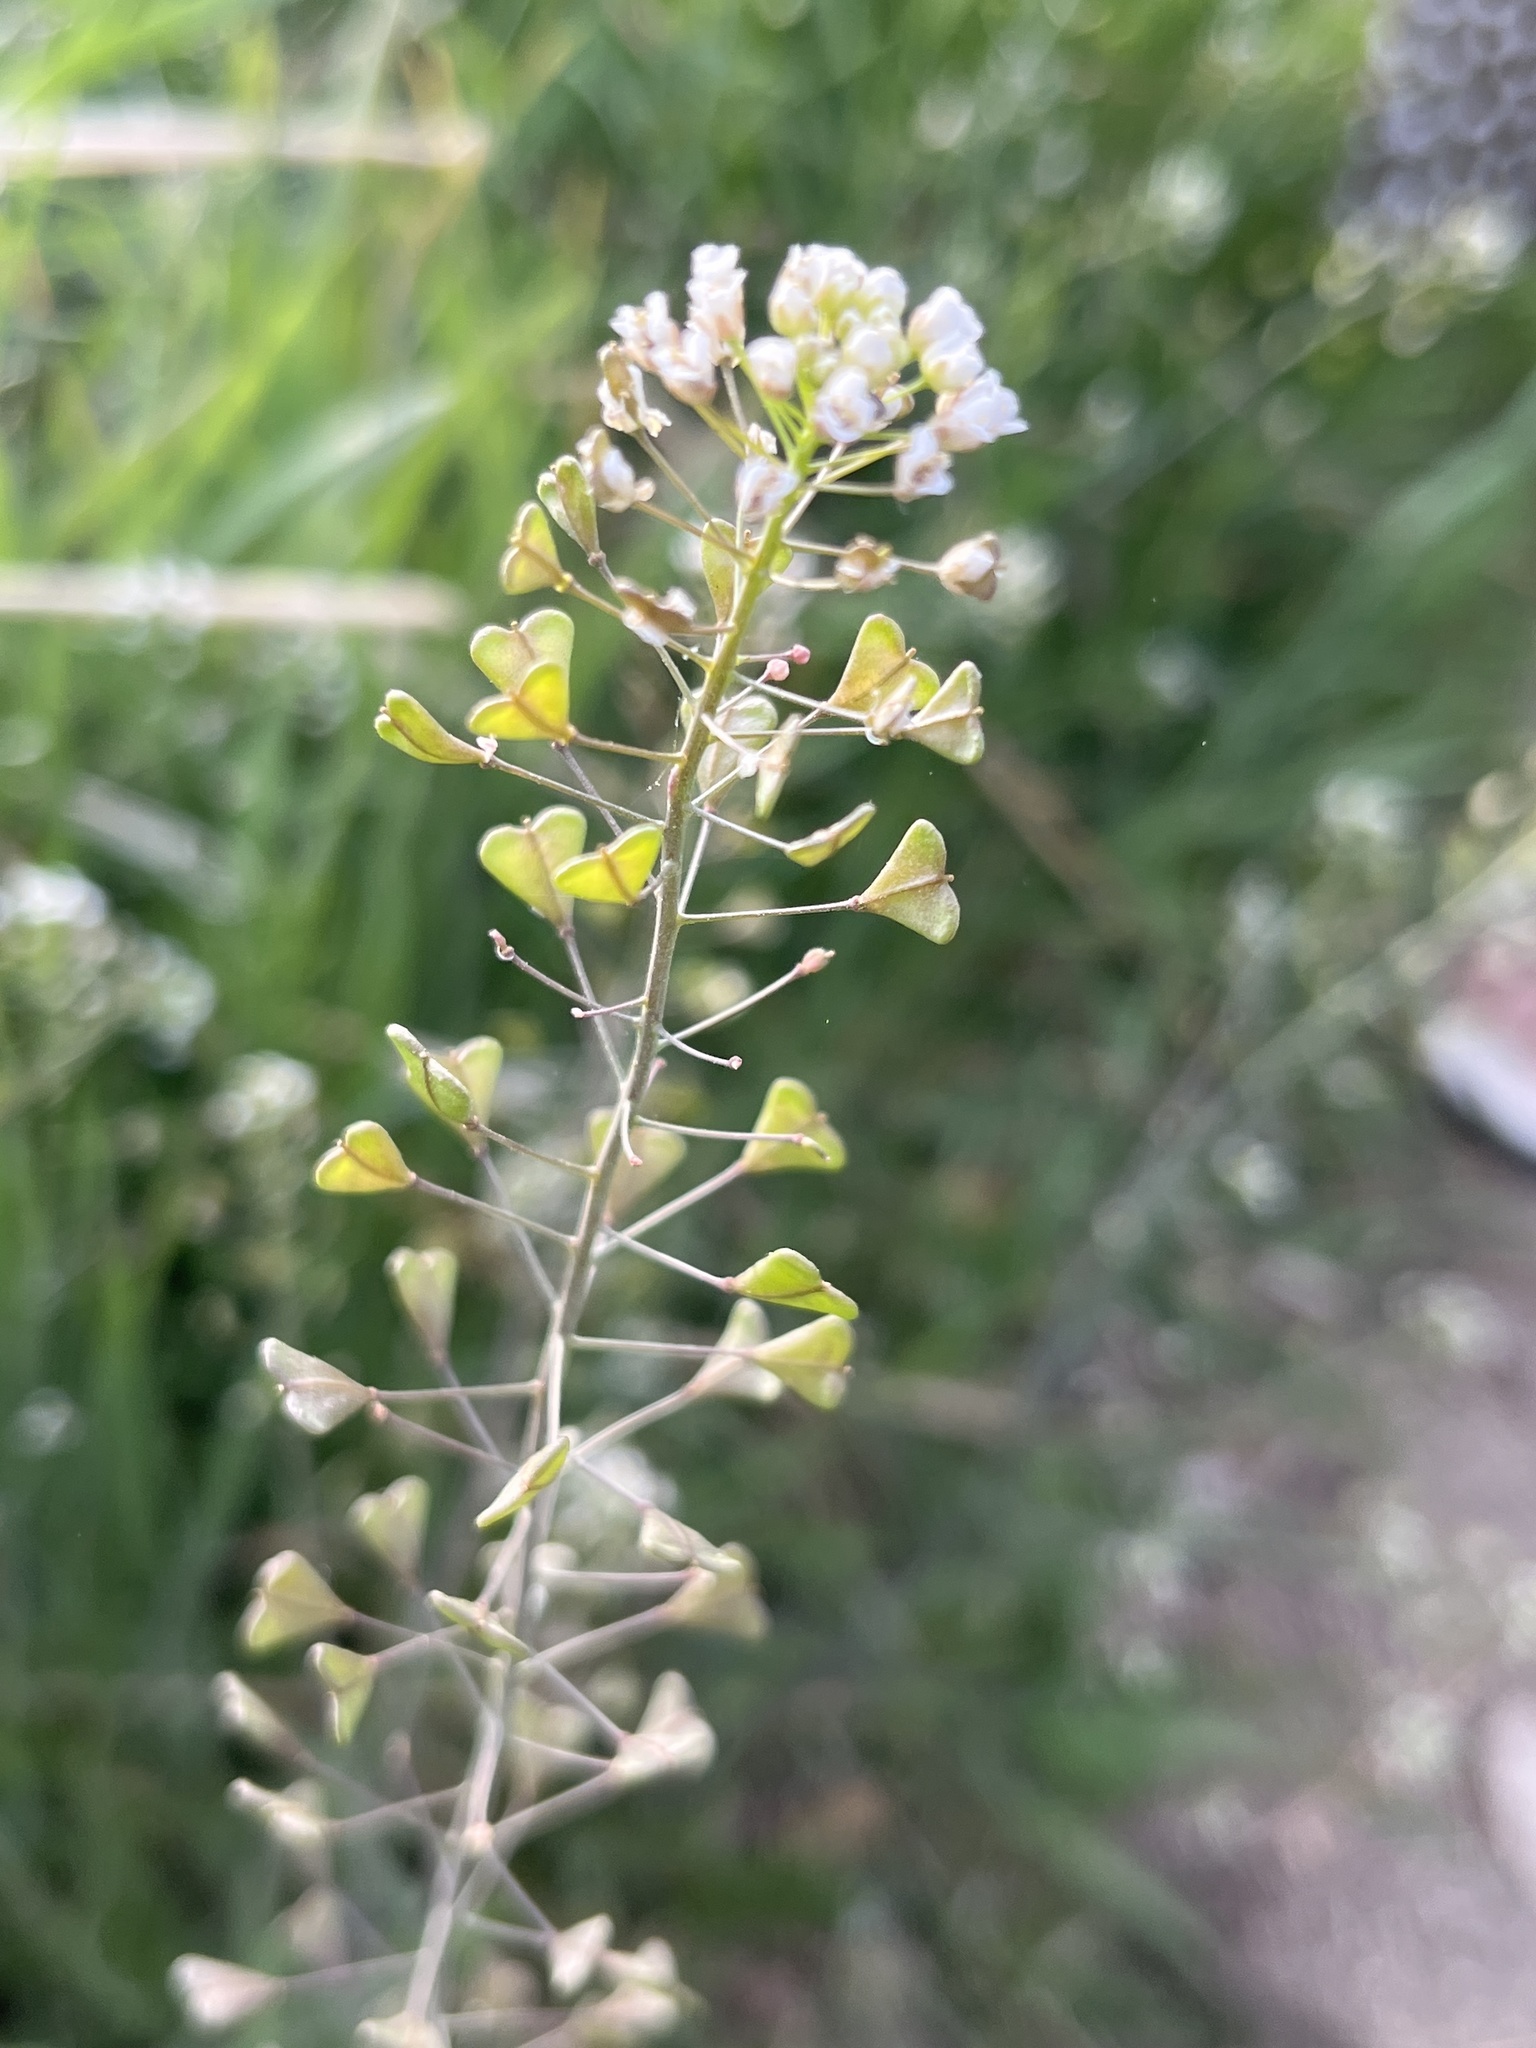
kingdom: Plantae
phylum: Tracheophyta
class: Magnoliopsida
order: Brassicales
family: Brassicaceae
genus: Capsella
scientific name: Capsella bursa-pastoris
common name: Shepherd's purse
